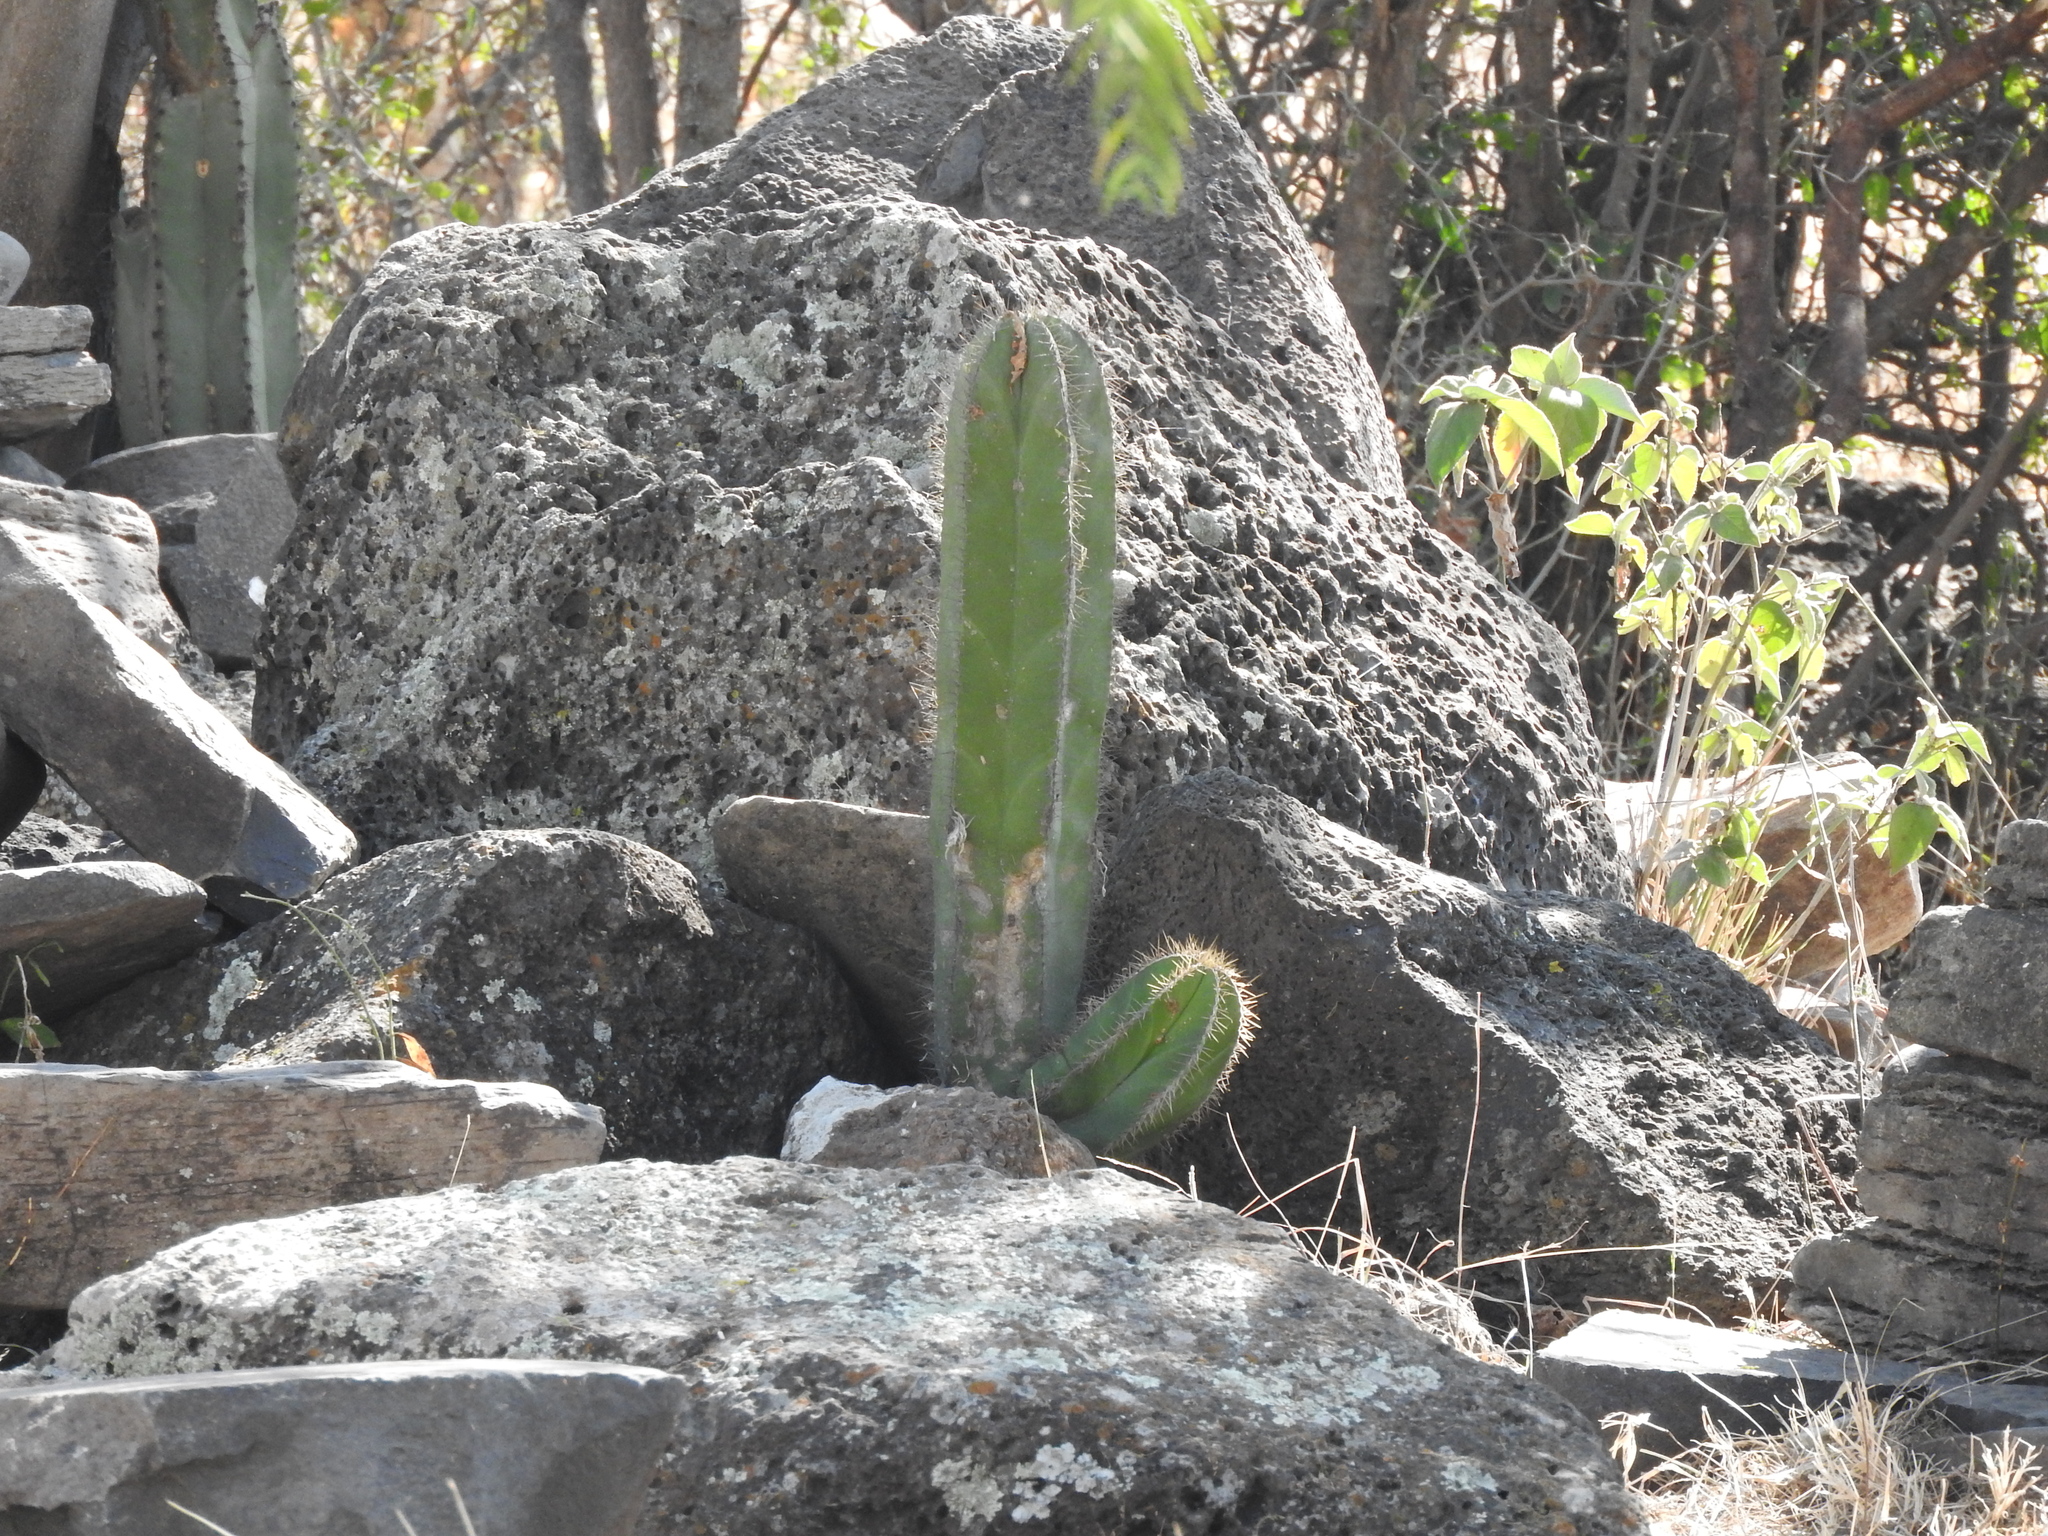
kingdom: Plantae
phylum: Tracheophyta
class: Magnoliopsida
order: Caryophyllales
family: Cactaceae
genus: Stenocereus
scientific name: Stenocereus dumortieri
